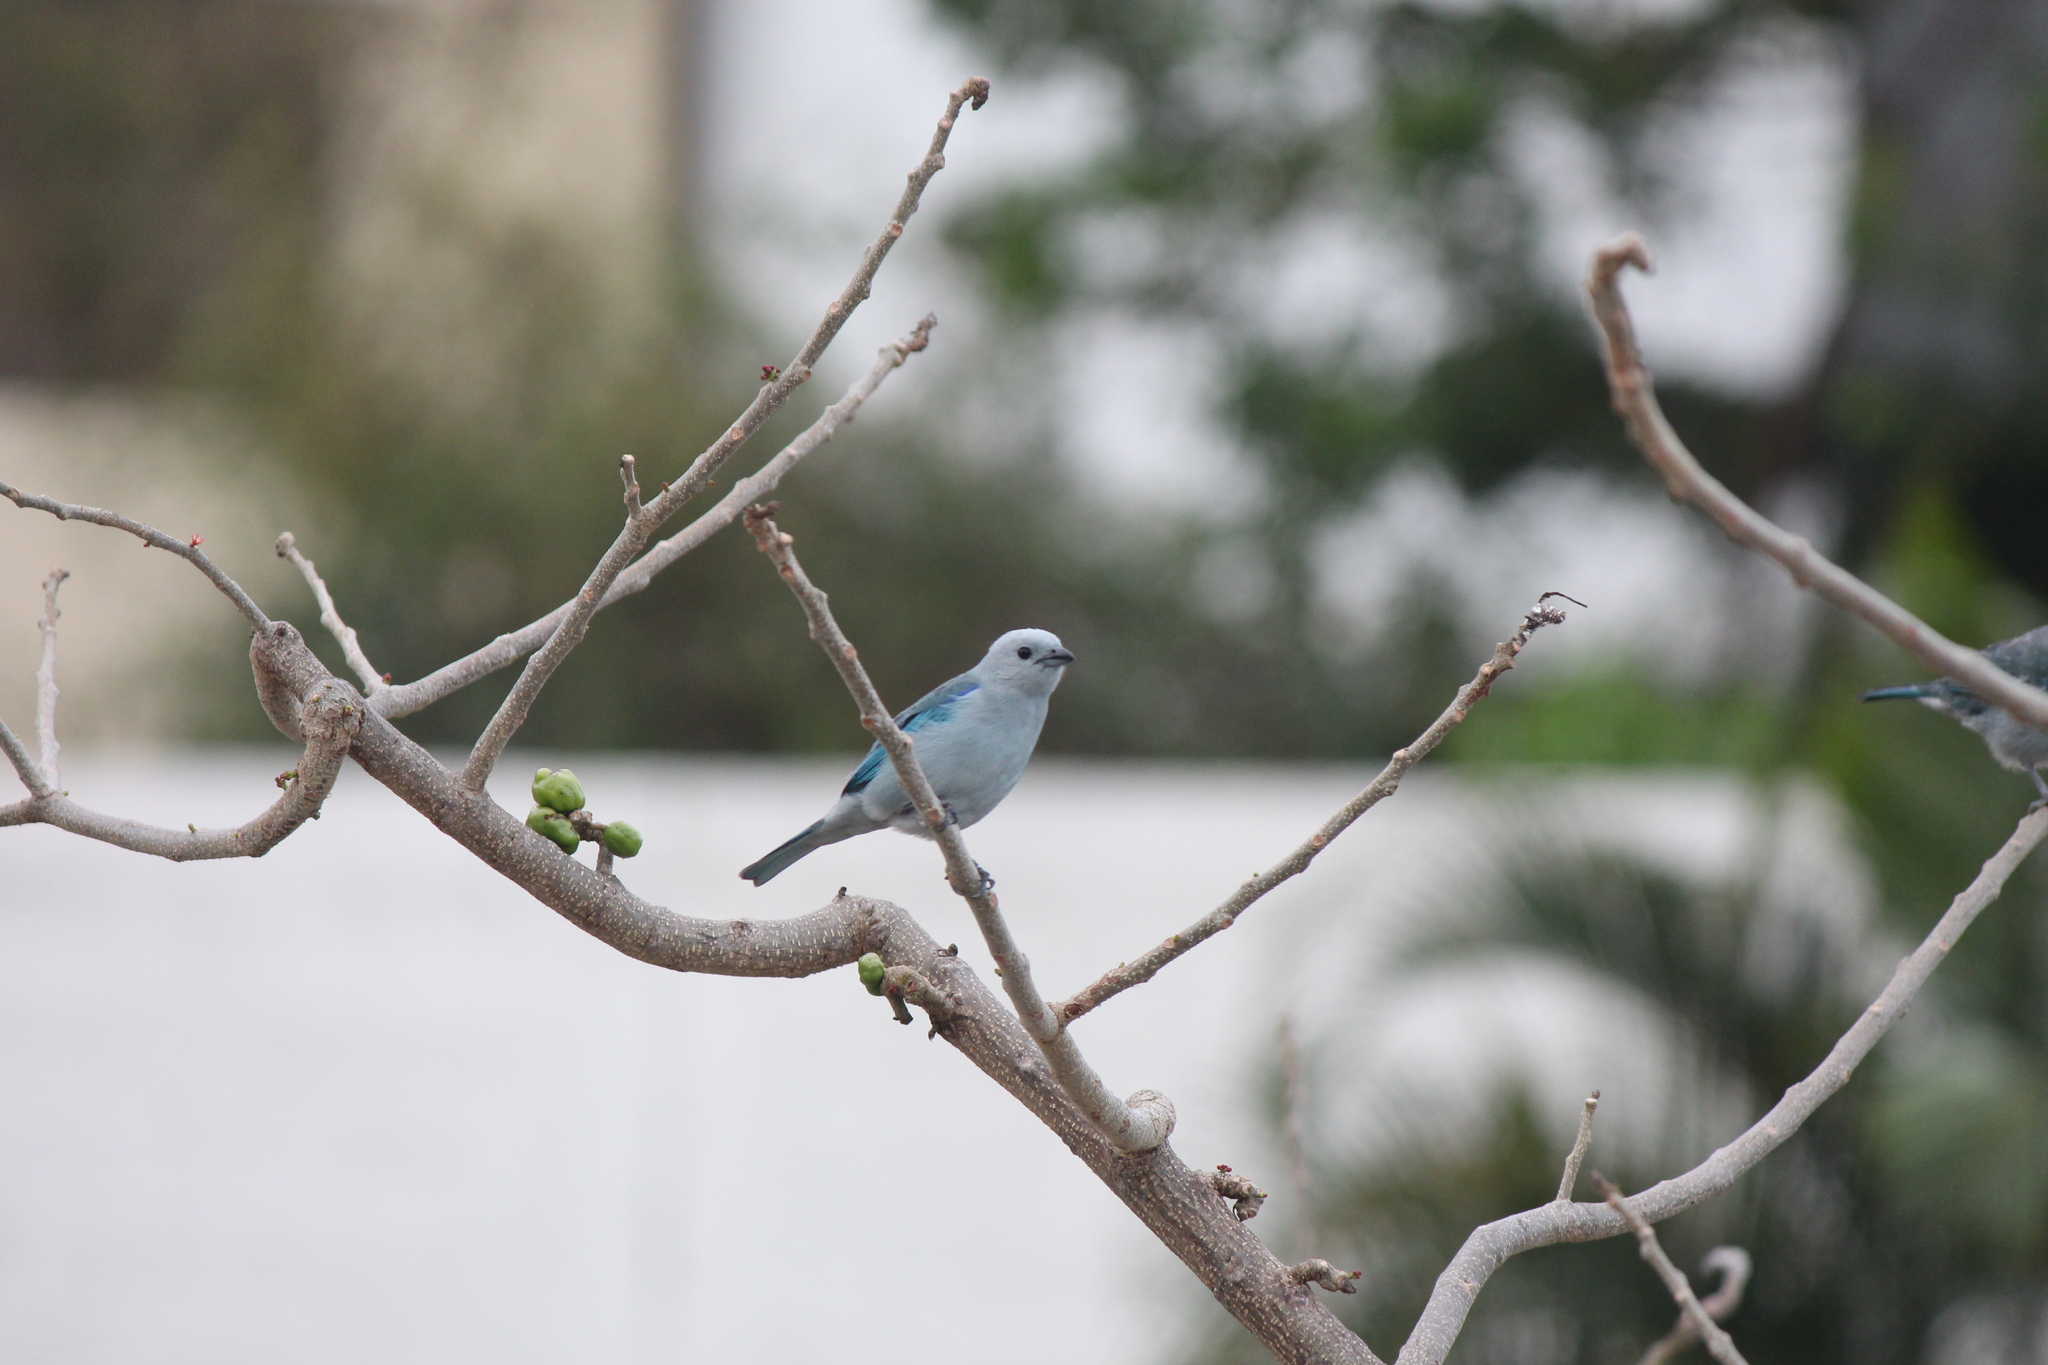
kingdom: Animalia
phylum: Chordata
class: Aves
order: Passeriformes
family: Thraupidae
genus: Thraupis
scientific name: Thraupis episcopus
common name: Blue-grey tanager
